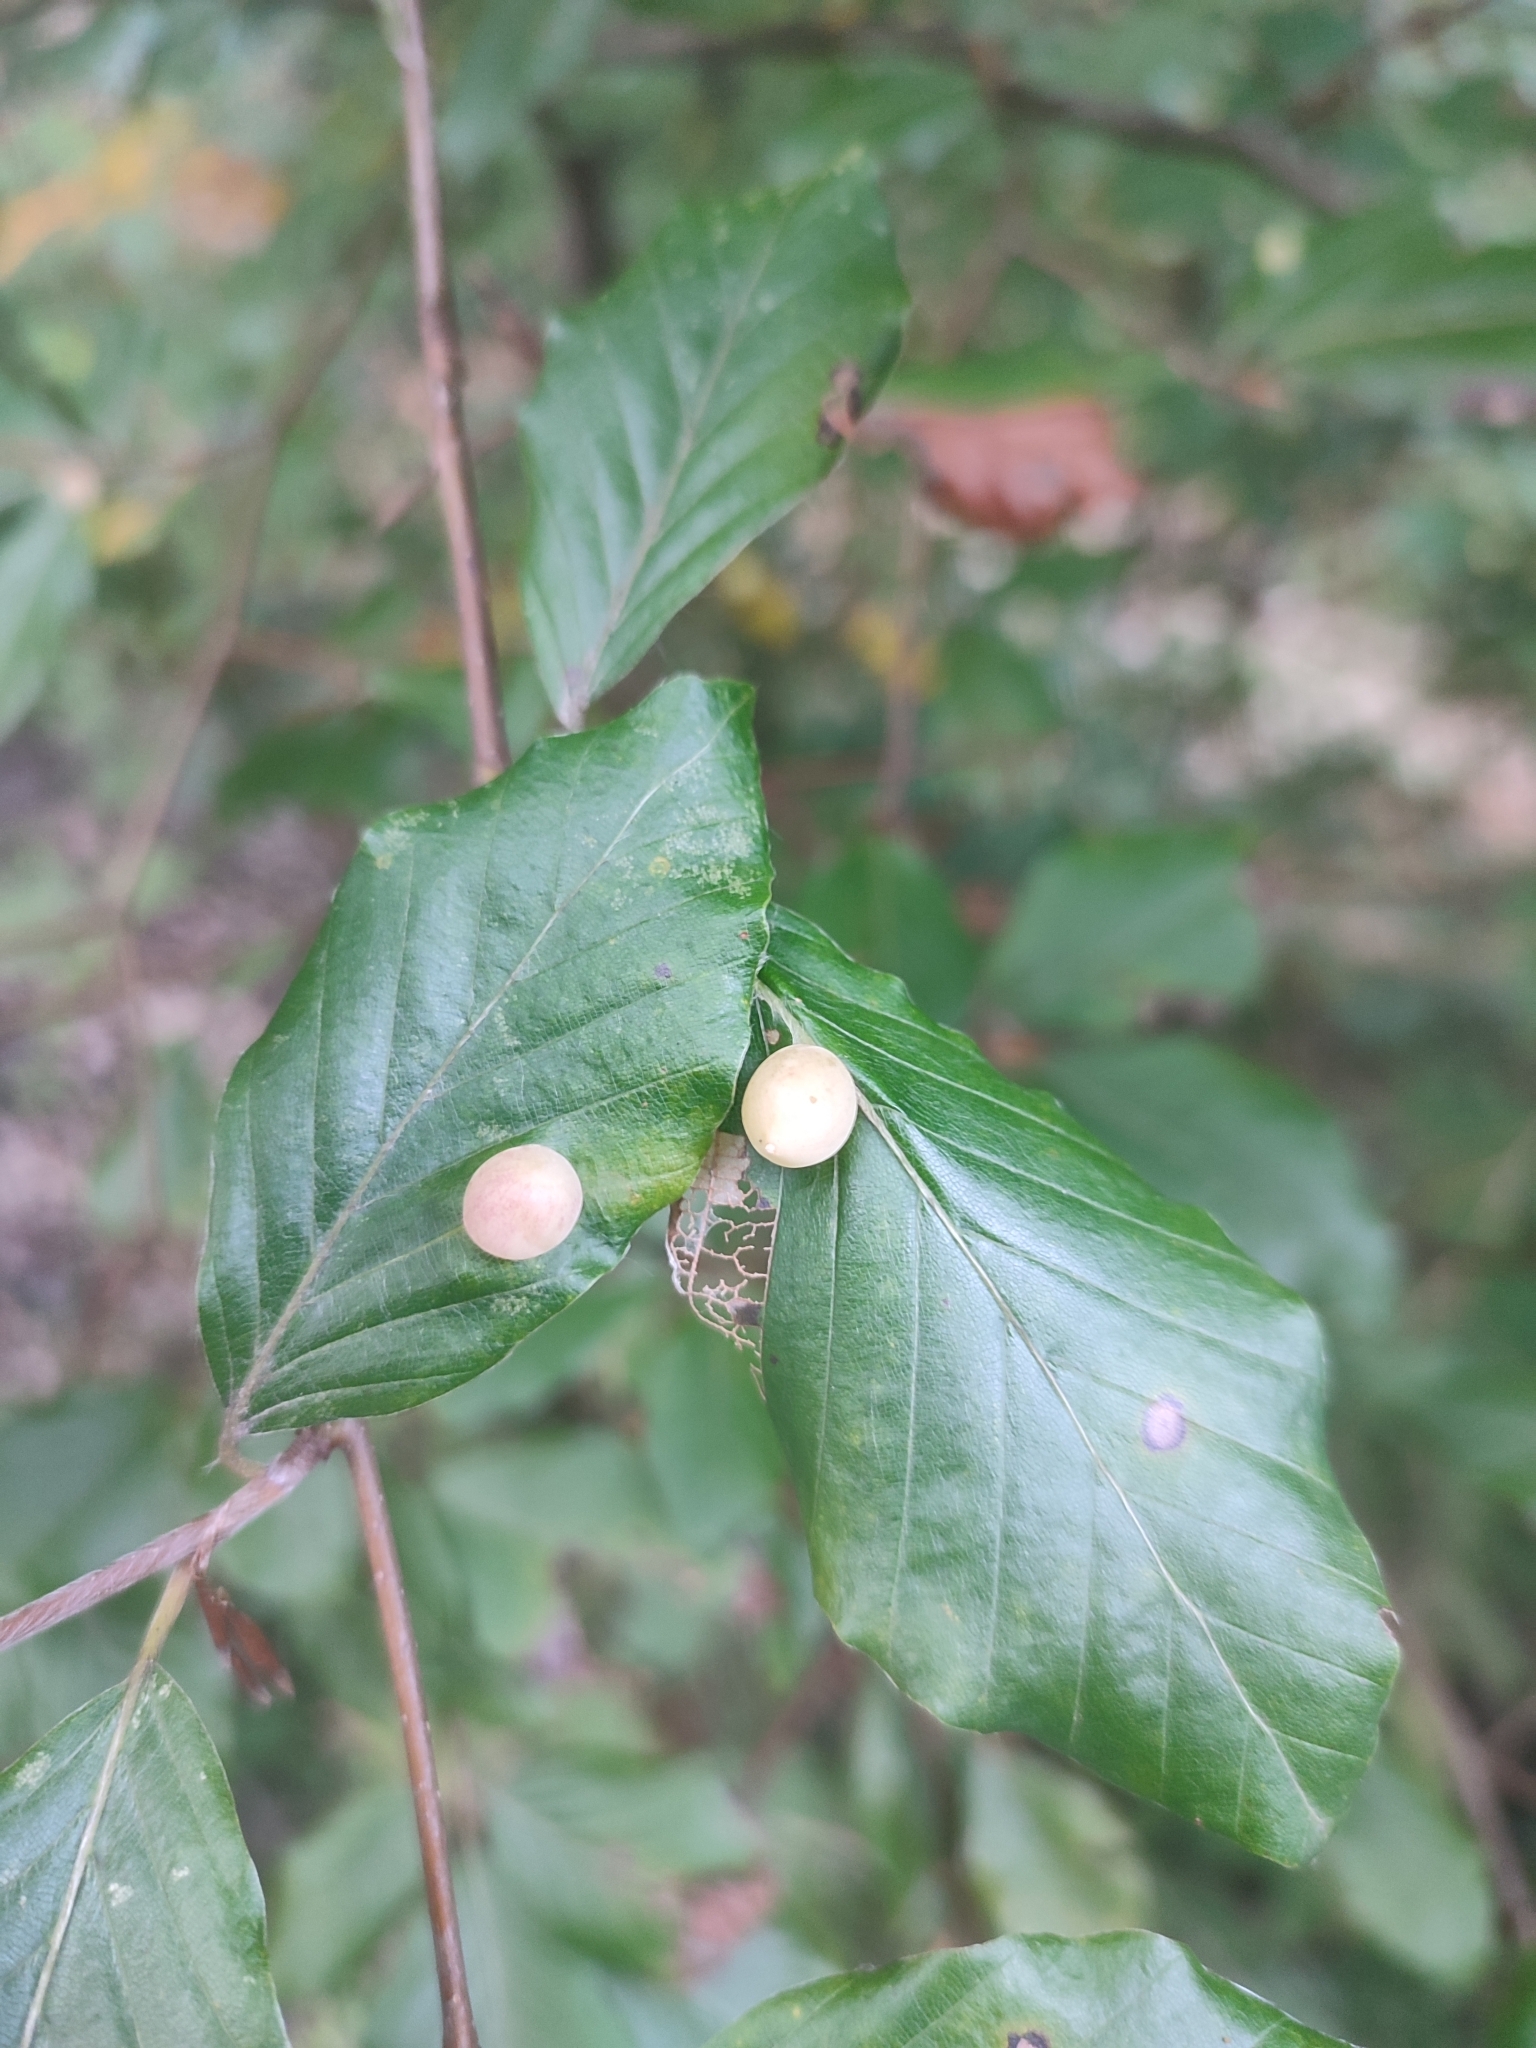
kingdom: Animalia
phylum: Arthropoda
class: Insecta
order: Diptera
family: Cecidomyiidae
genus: Mikiola
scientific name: Mikiola fagi
